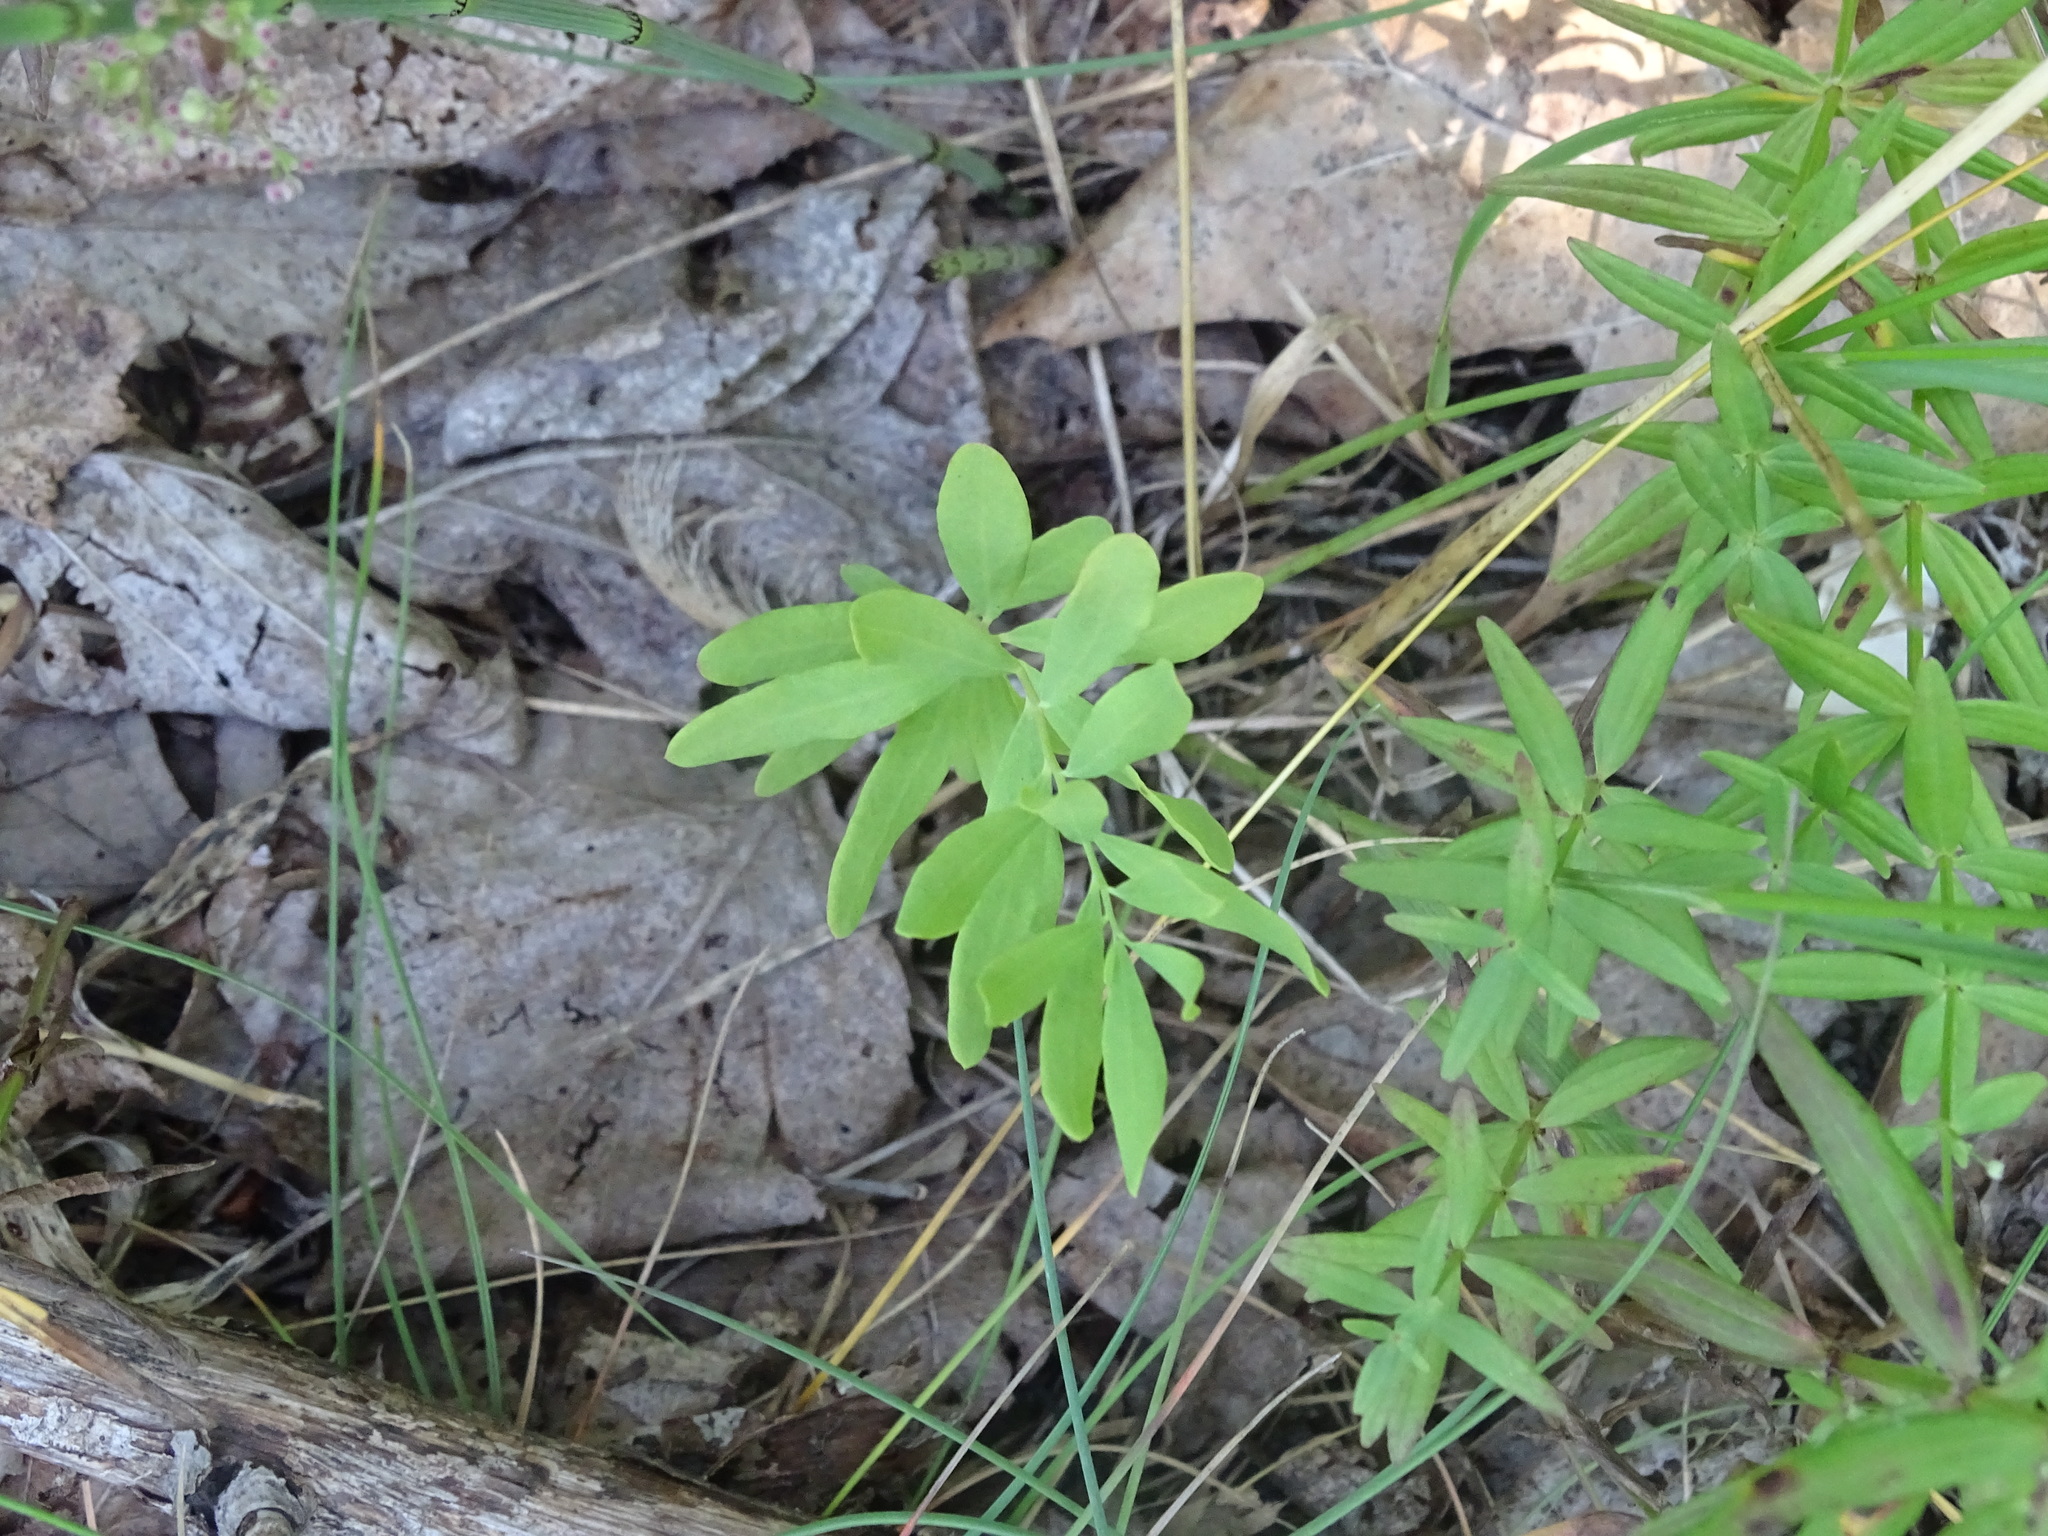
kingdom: Plantae
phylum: Tracheophyta
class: Magnoliopsida
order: Santalales
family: Comandraceae
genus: Comandra
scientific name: Comandra umbellata
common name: Bastard toadflax
